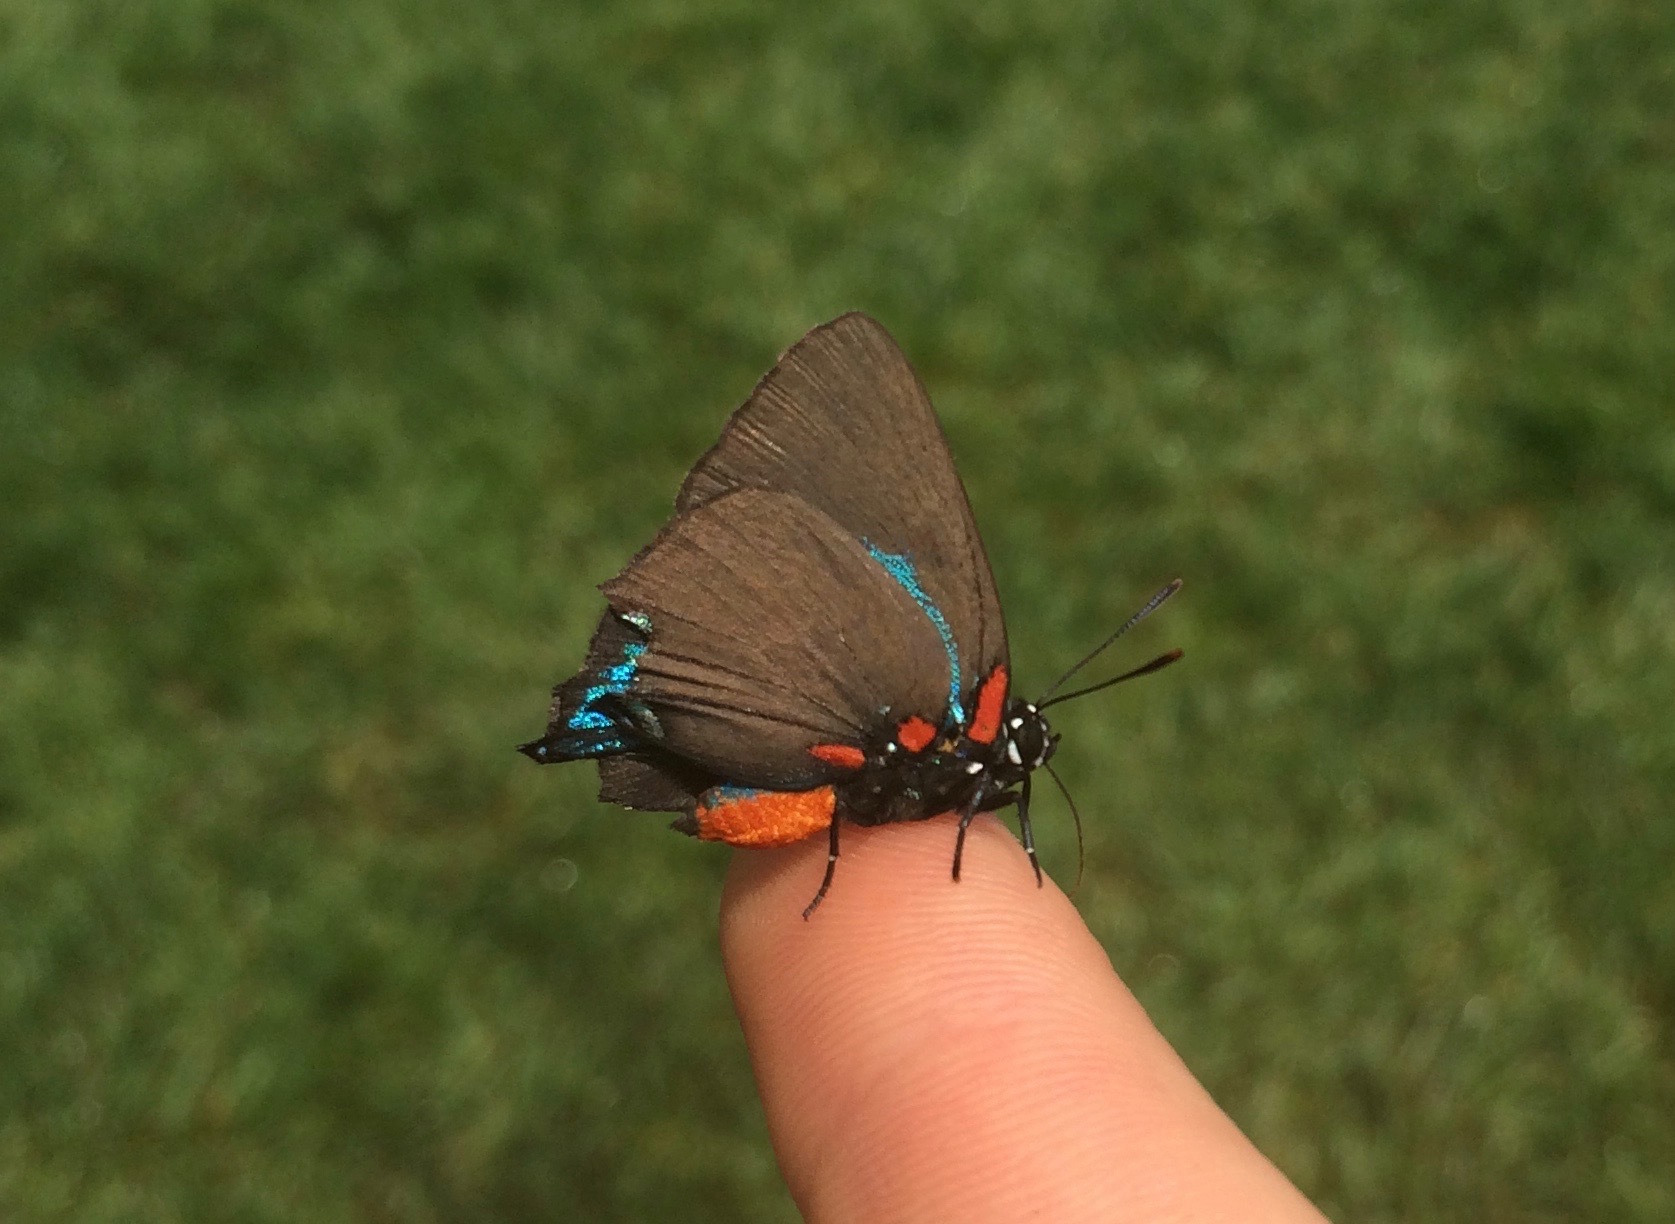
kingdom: Animalia
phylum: Arthropoda
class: Insecta
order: Lepidoptera
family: Lycaenidae
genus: Atlides
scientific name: Atlides halesus
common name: Great purple hairstreak
